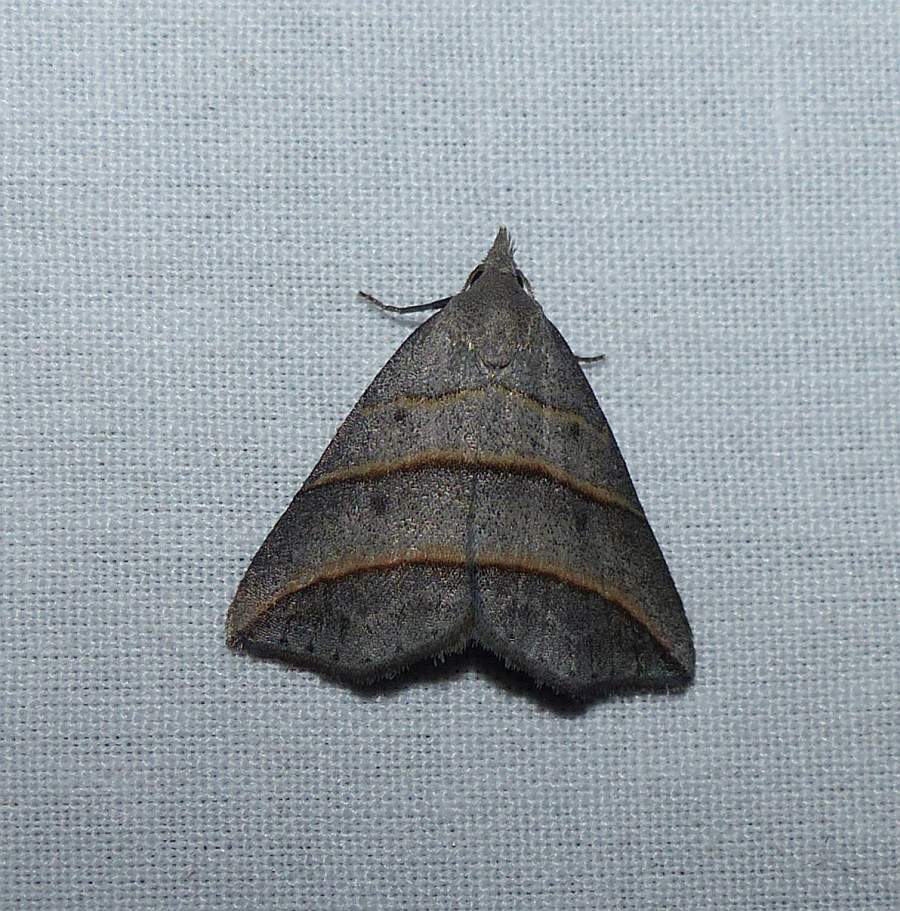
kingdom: Animalia
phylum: Arthropoda
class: Insecta
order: Lepidoptera
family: Erebidae
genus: Colobochyla
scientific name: Colobochyla interpuncta
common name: Yellow-lined owlet
